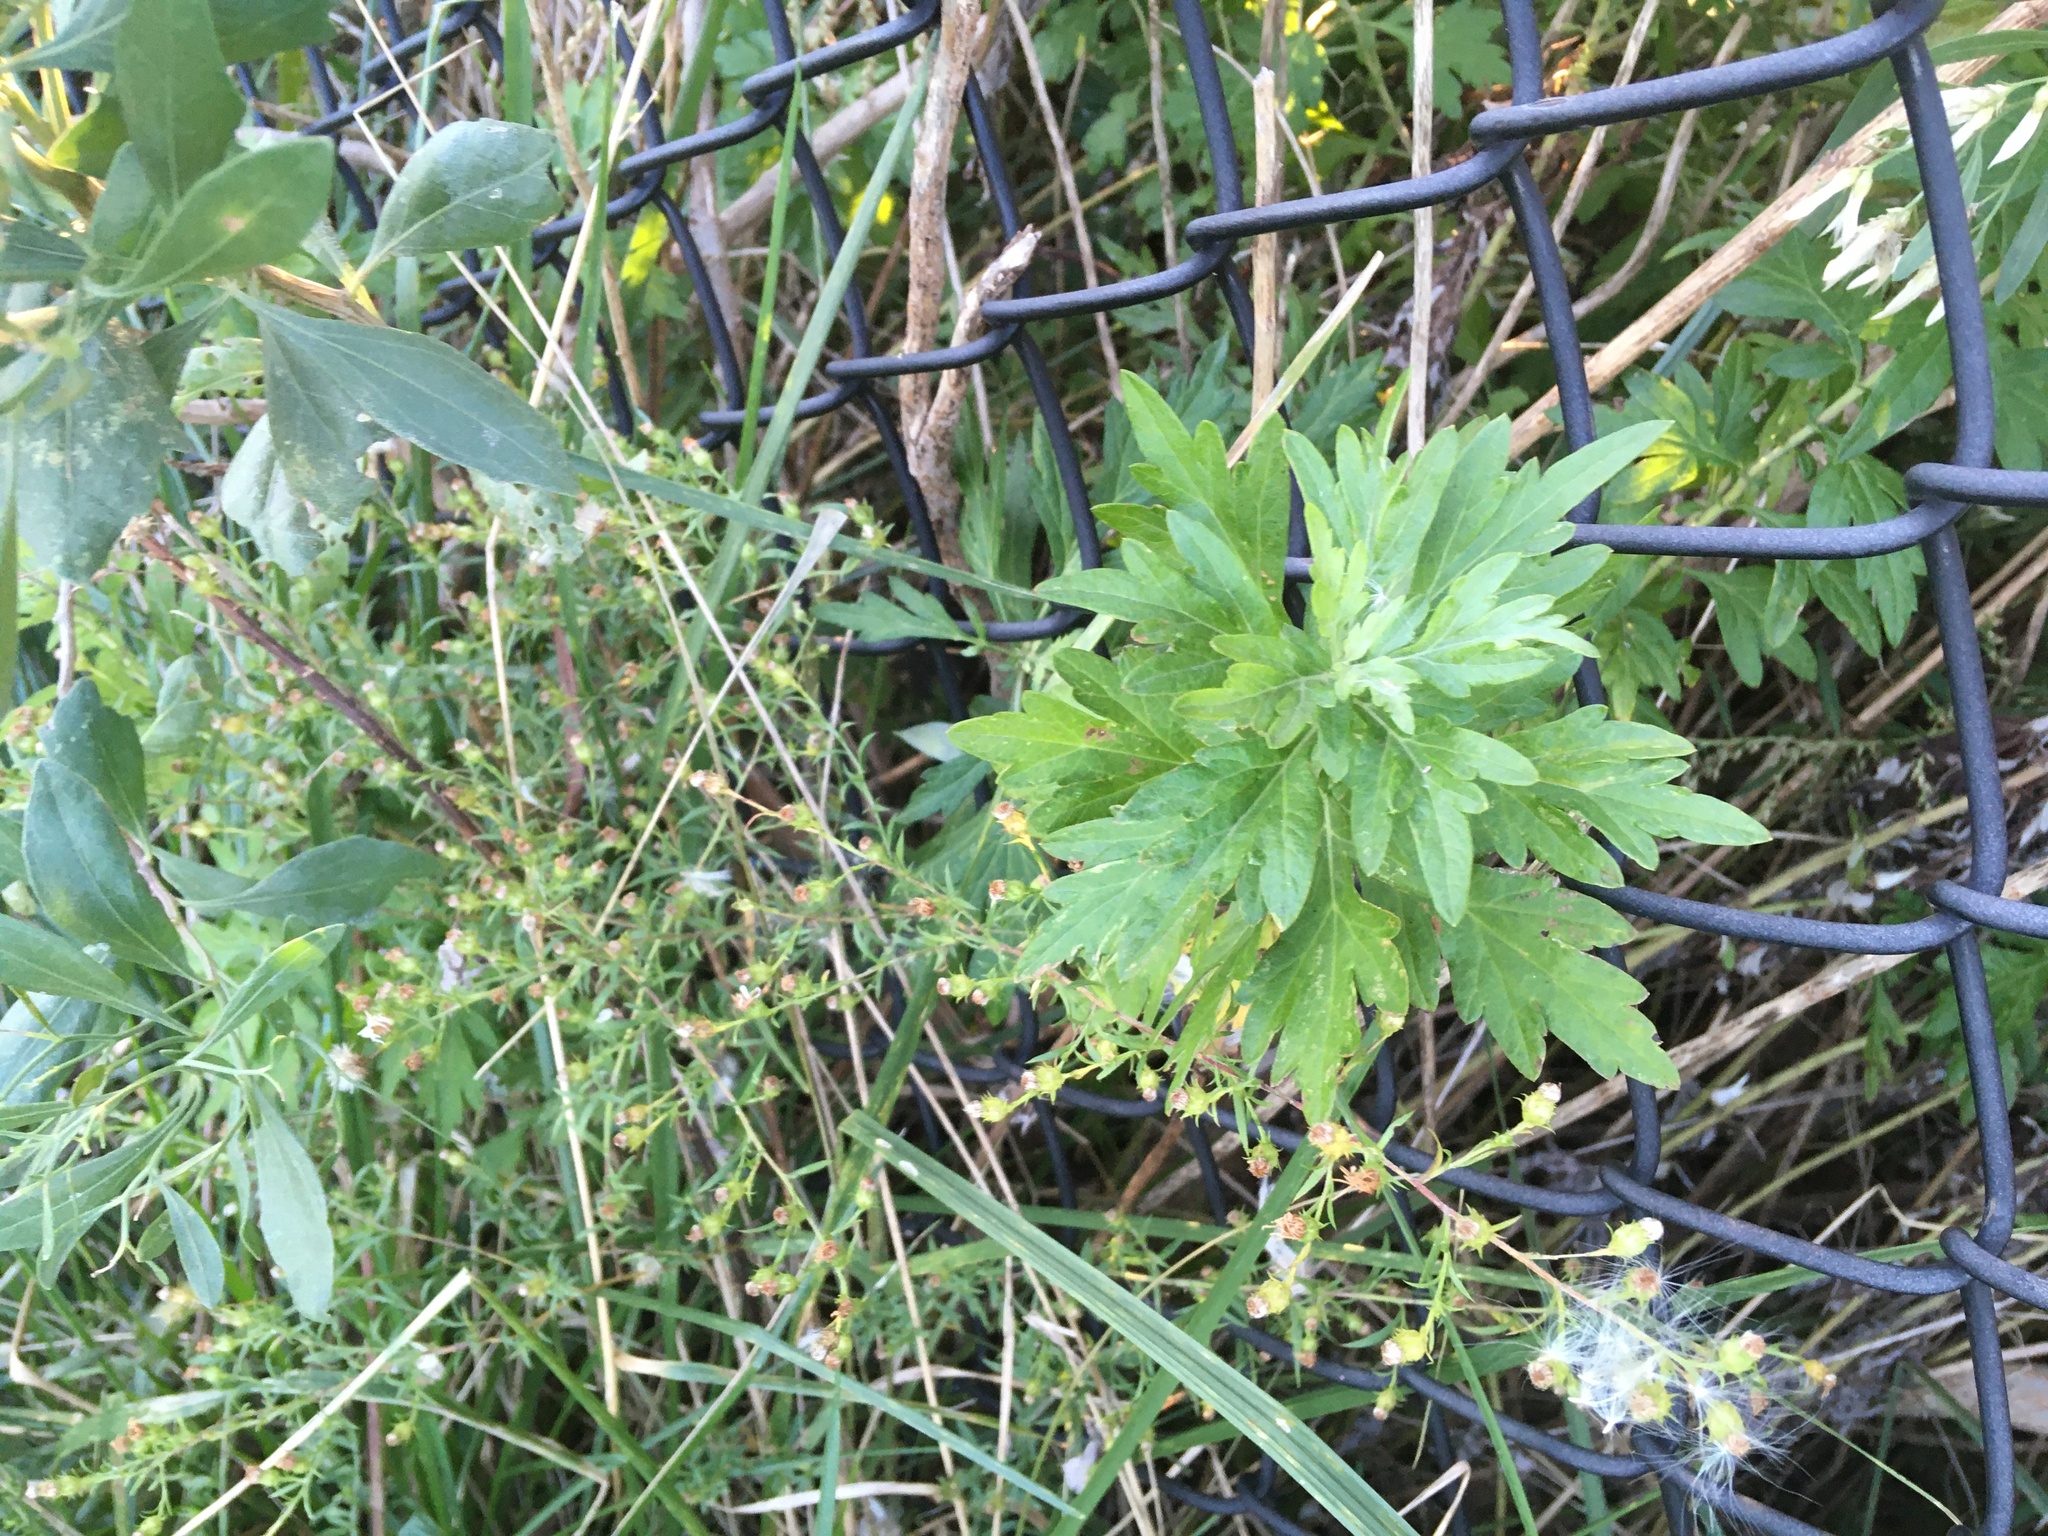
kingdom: Plantae
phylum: Tracheophyta
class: Magnoliopsida
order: Asterales
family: Asteraceae
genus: Artemisia
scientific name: Artemisia vulgaris
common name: Mugwort
